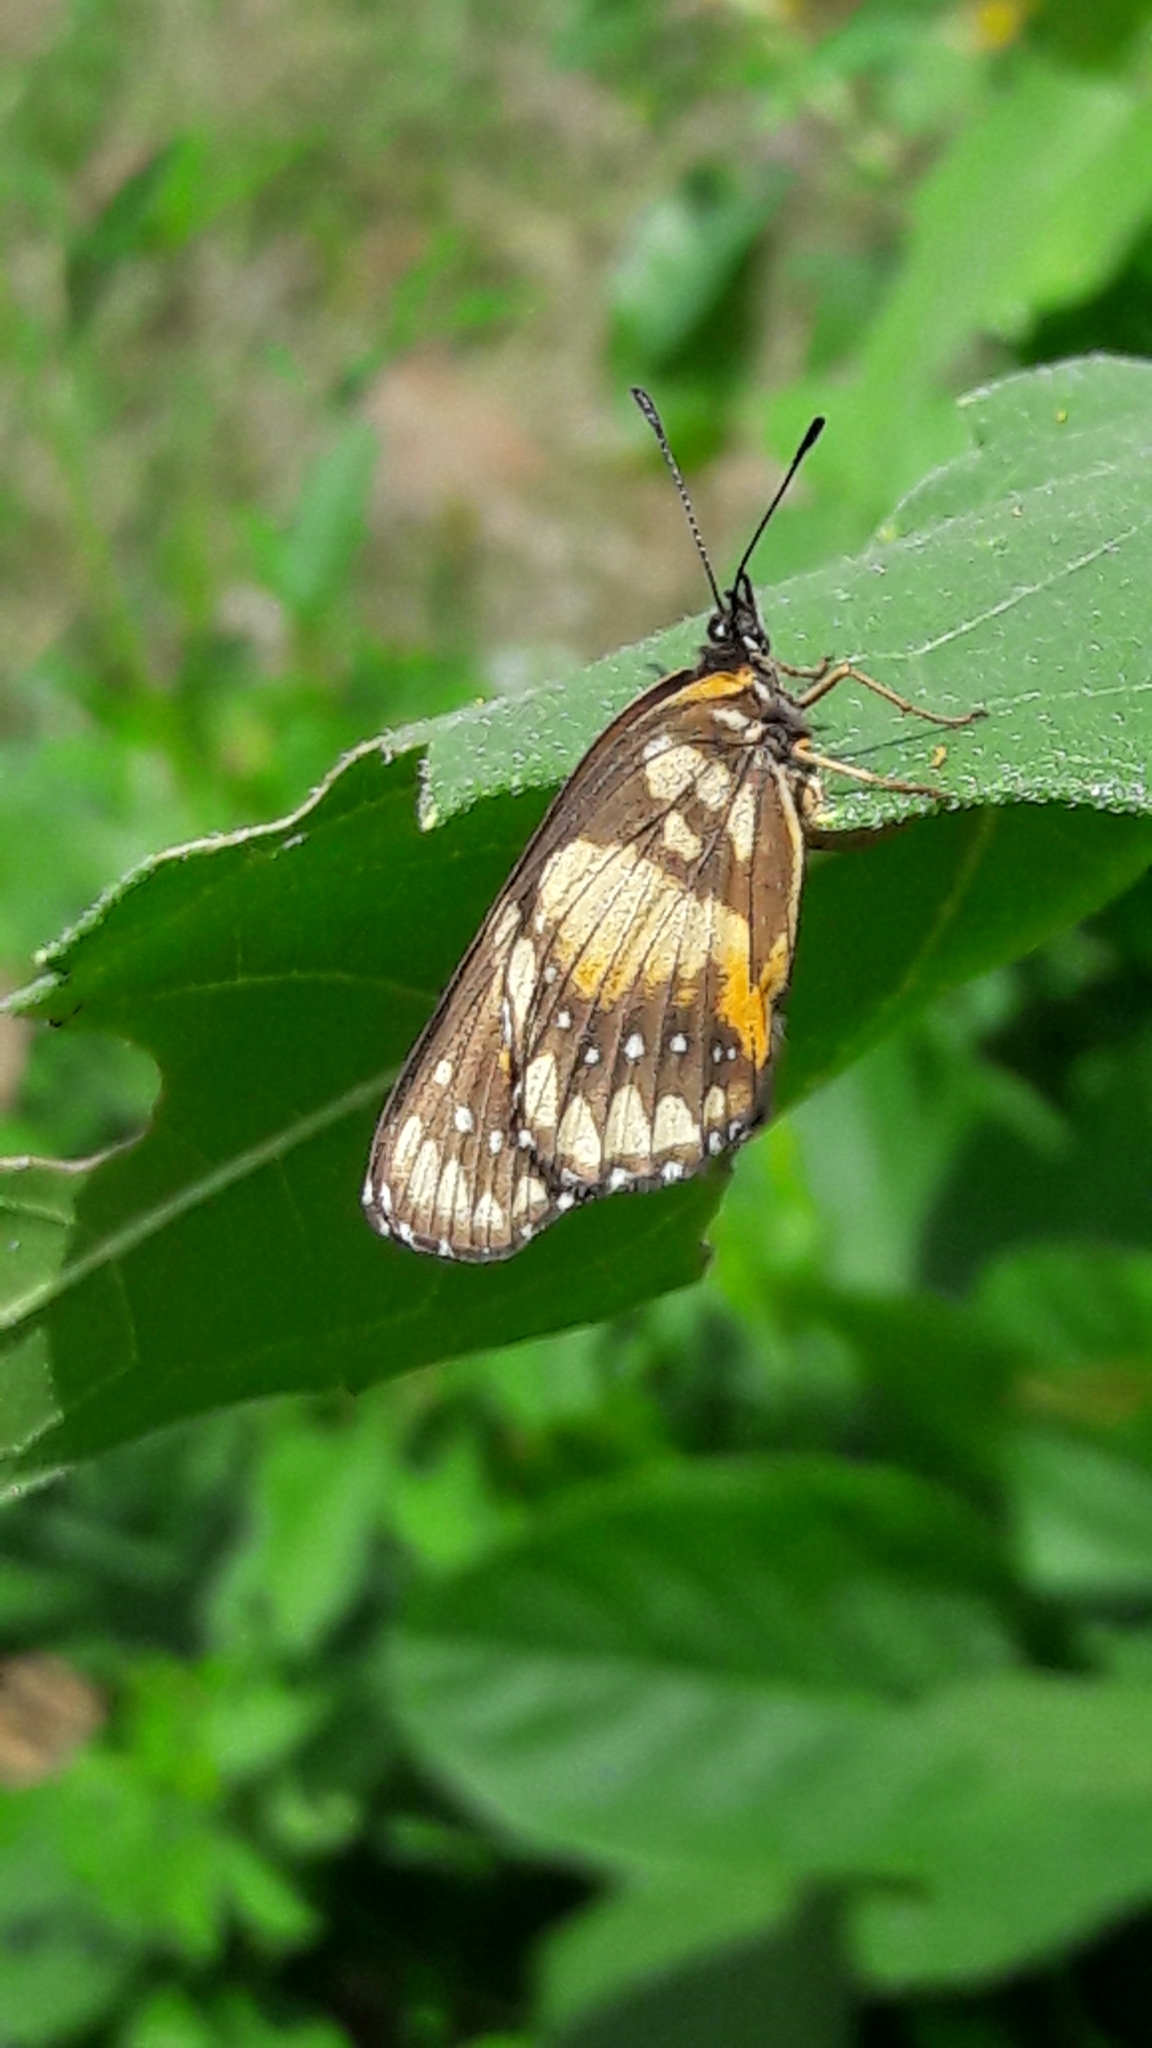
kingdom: Animalia
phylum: Arthropoda
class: Insecta
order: Lepidoptera
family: Nymphalidae
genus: Chlosyne
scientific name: Chlosyne lacinia
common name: Bordered patch
